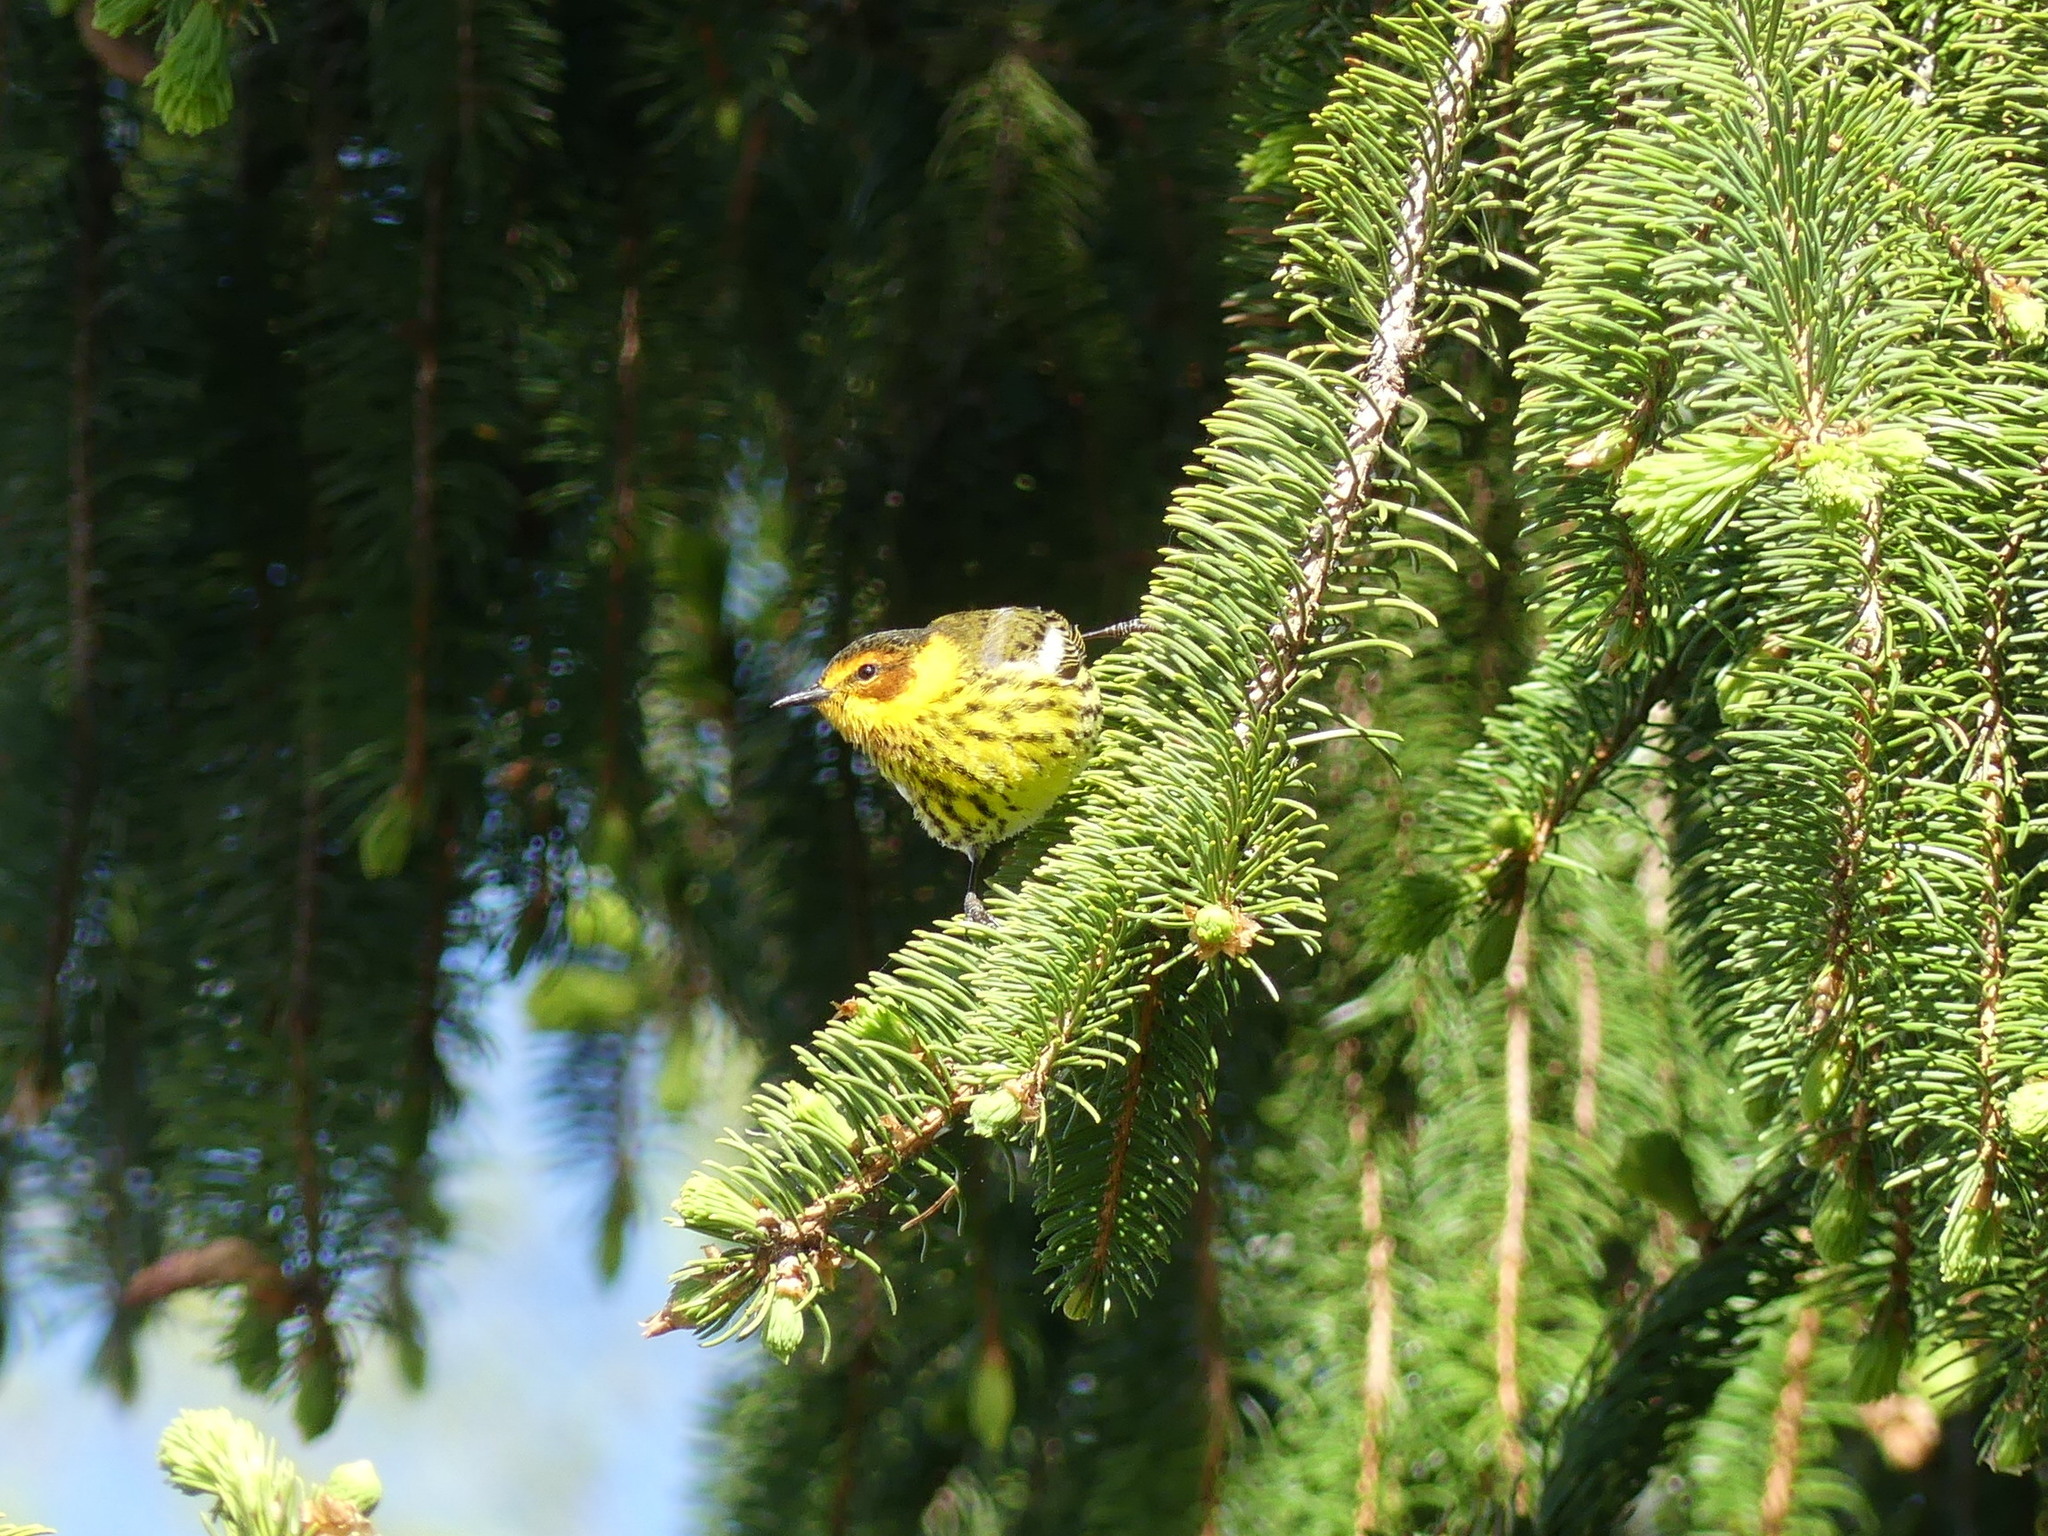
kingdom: Animalia
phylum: Chordata
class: Aves
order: Passeriformes
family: Parulidae
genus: Setophaga
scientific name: Setophaga tigrina
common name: Cape may warbler
